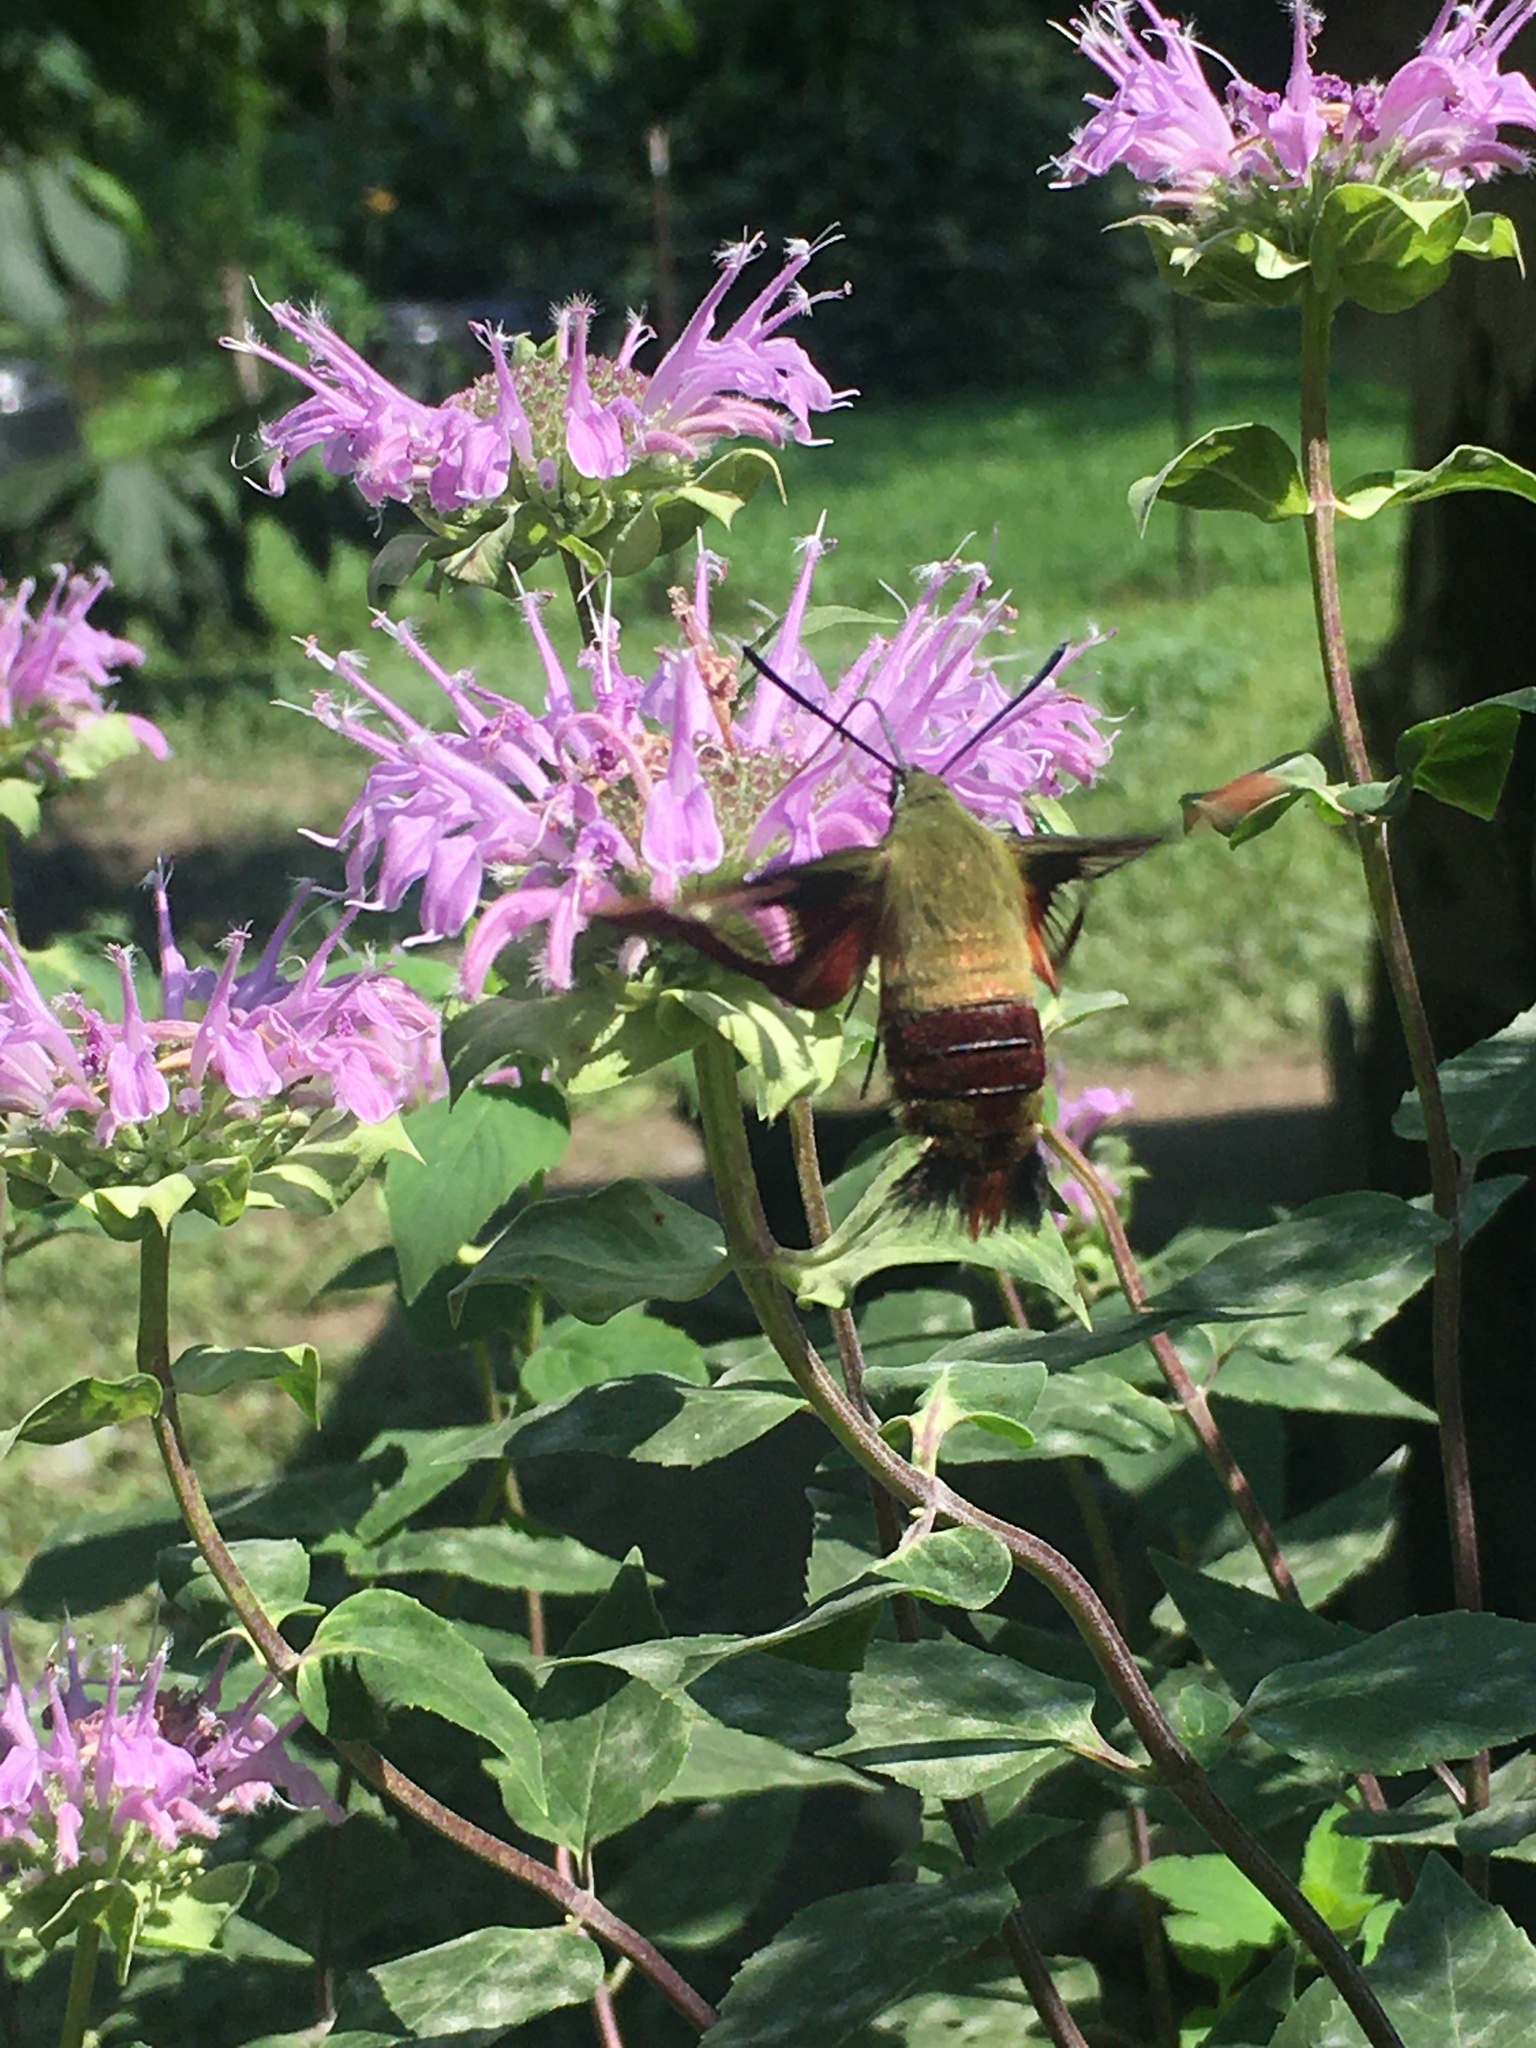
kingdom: Animalia
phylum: Arthropoda
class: Insecta
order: Lepidoptera
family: Sphingidae
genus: Hemaris
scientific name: Hemaris thysbe
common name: Common clear-wing
